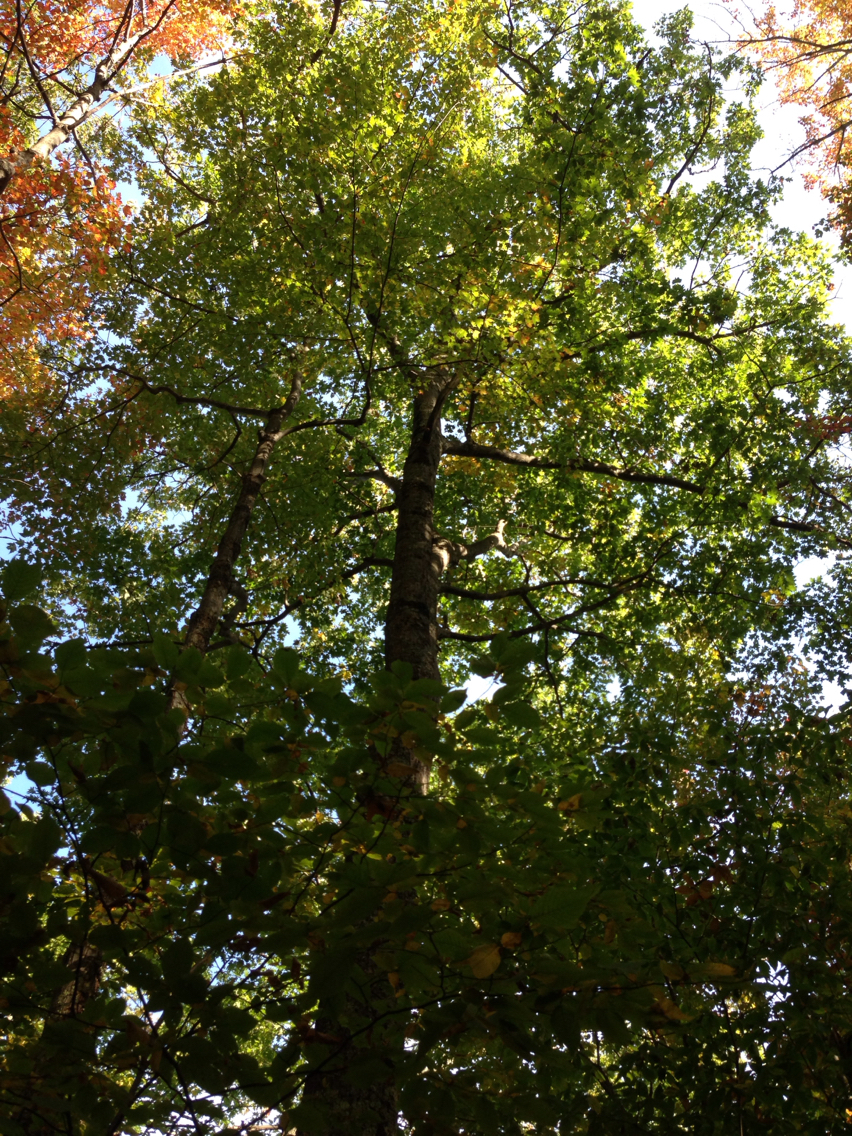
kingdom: Plantae
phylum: Tracheophyta
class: Magnoliopsida
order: Fagales
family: Fagaceae
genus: Quercus
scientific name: Quercus rubra
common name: Red oak
